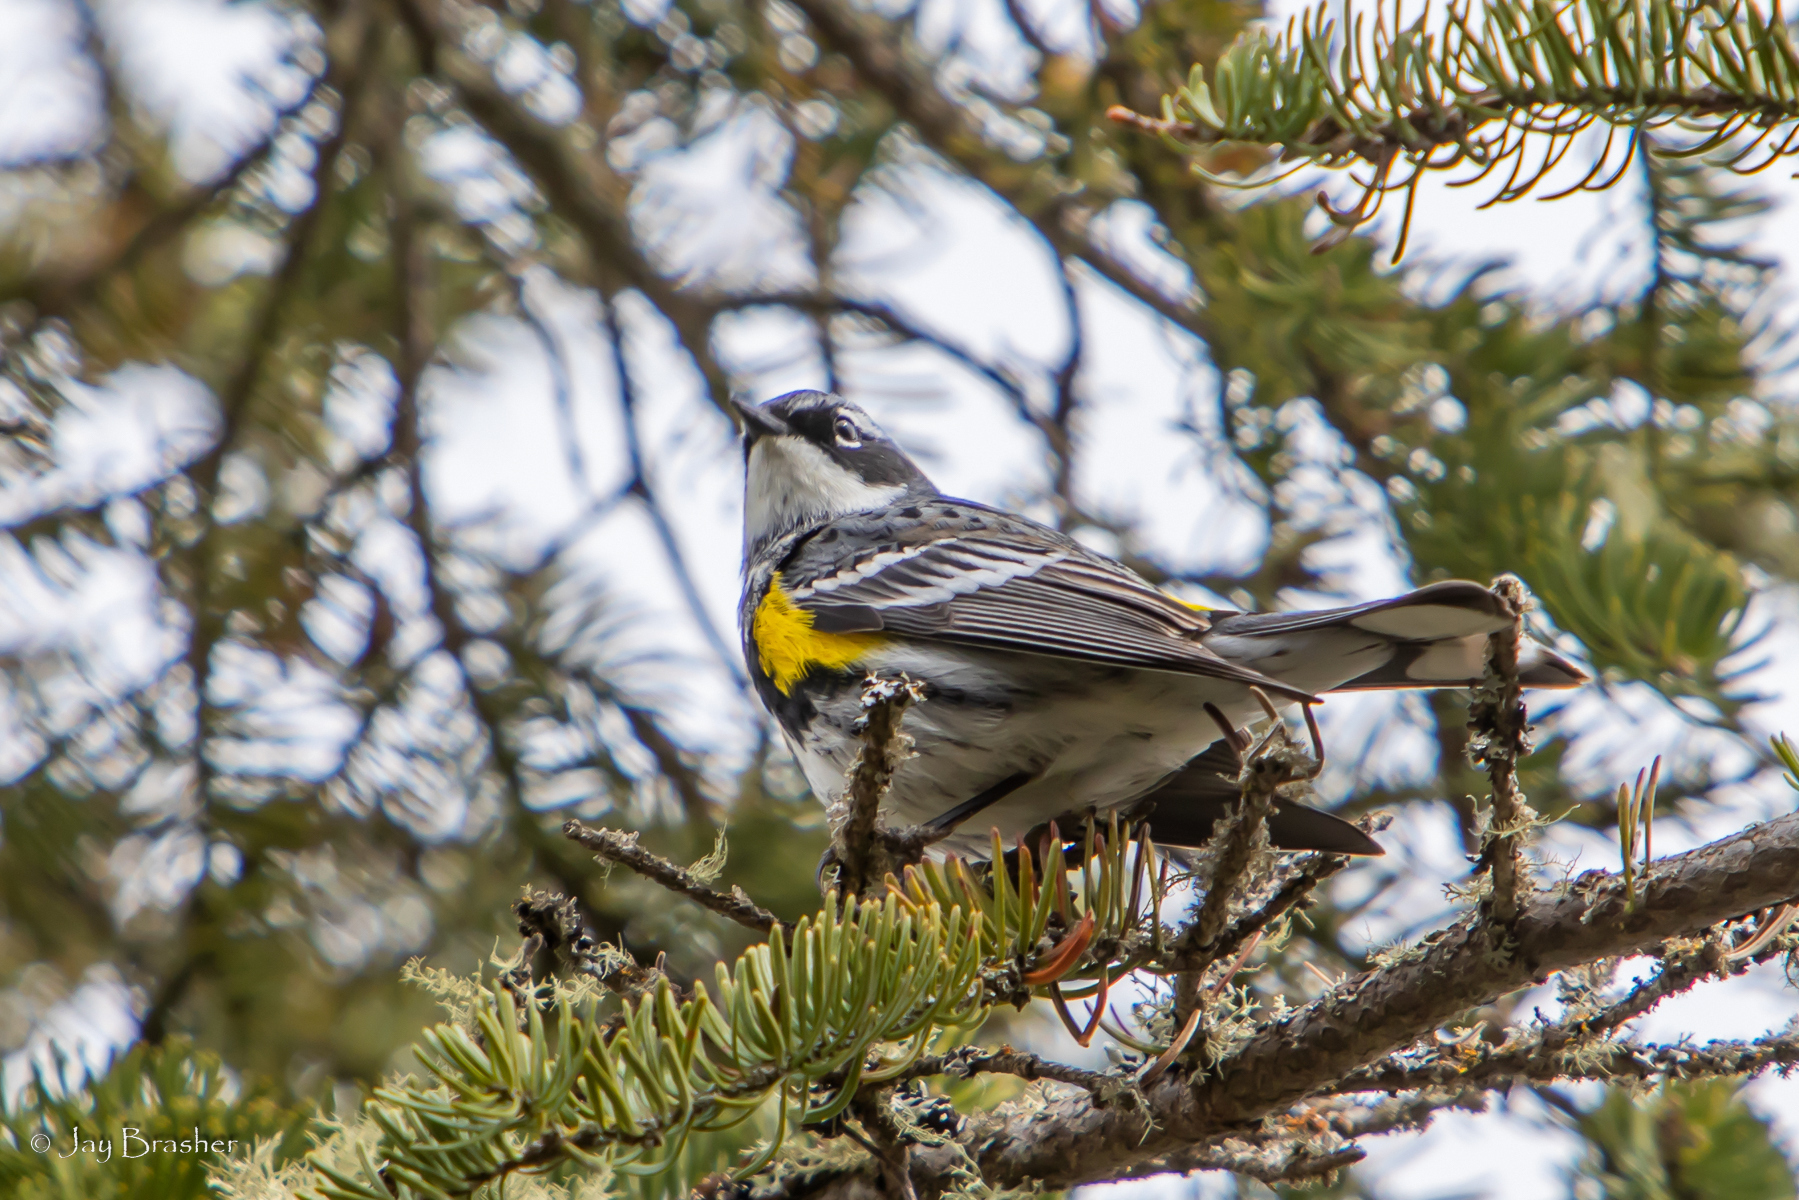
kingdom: Animalia
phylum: Chordata
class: Aves
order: Passeriformes
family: Parulidae
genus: Setophaga
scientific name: Setophaga coronata
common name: Myrtle warbler
